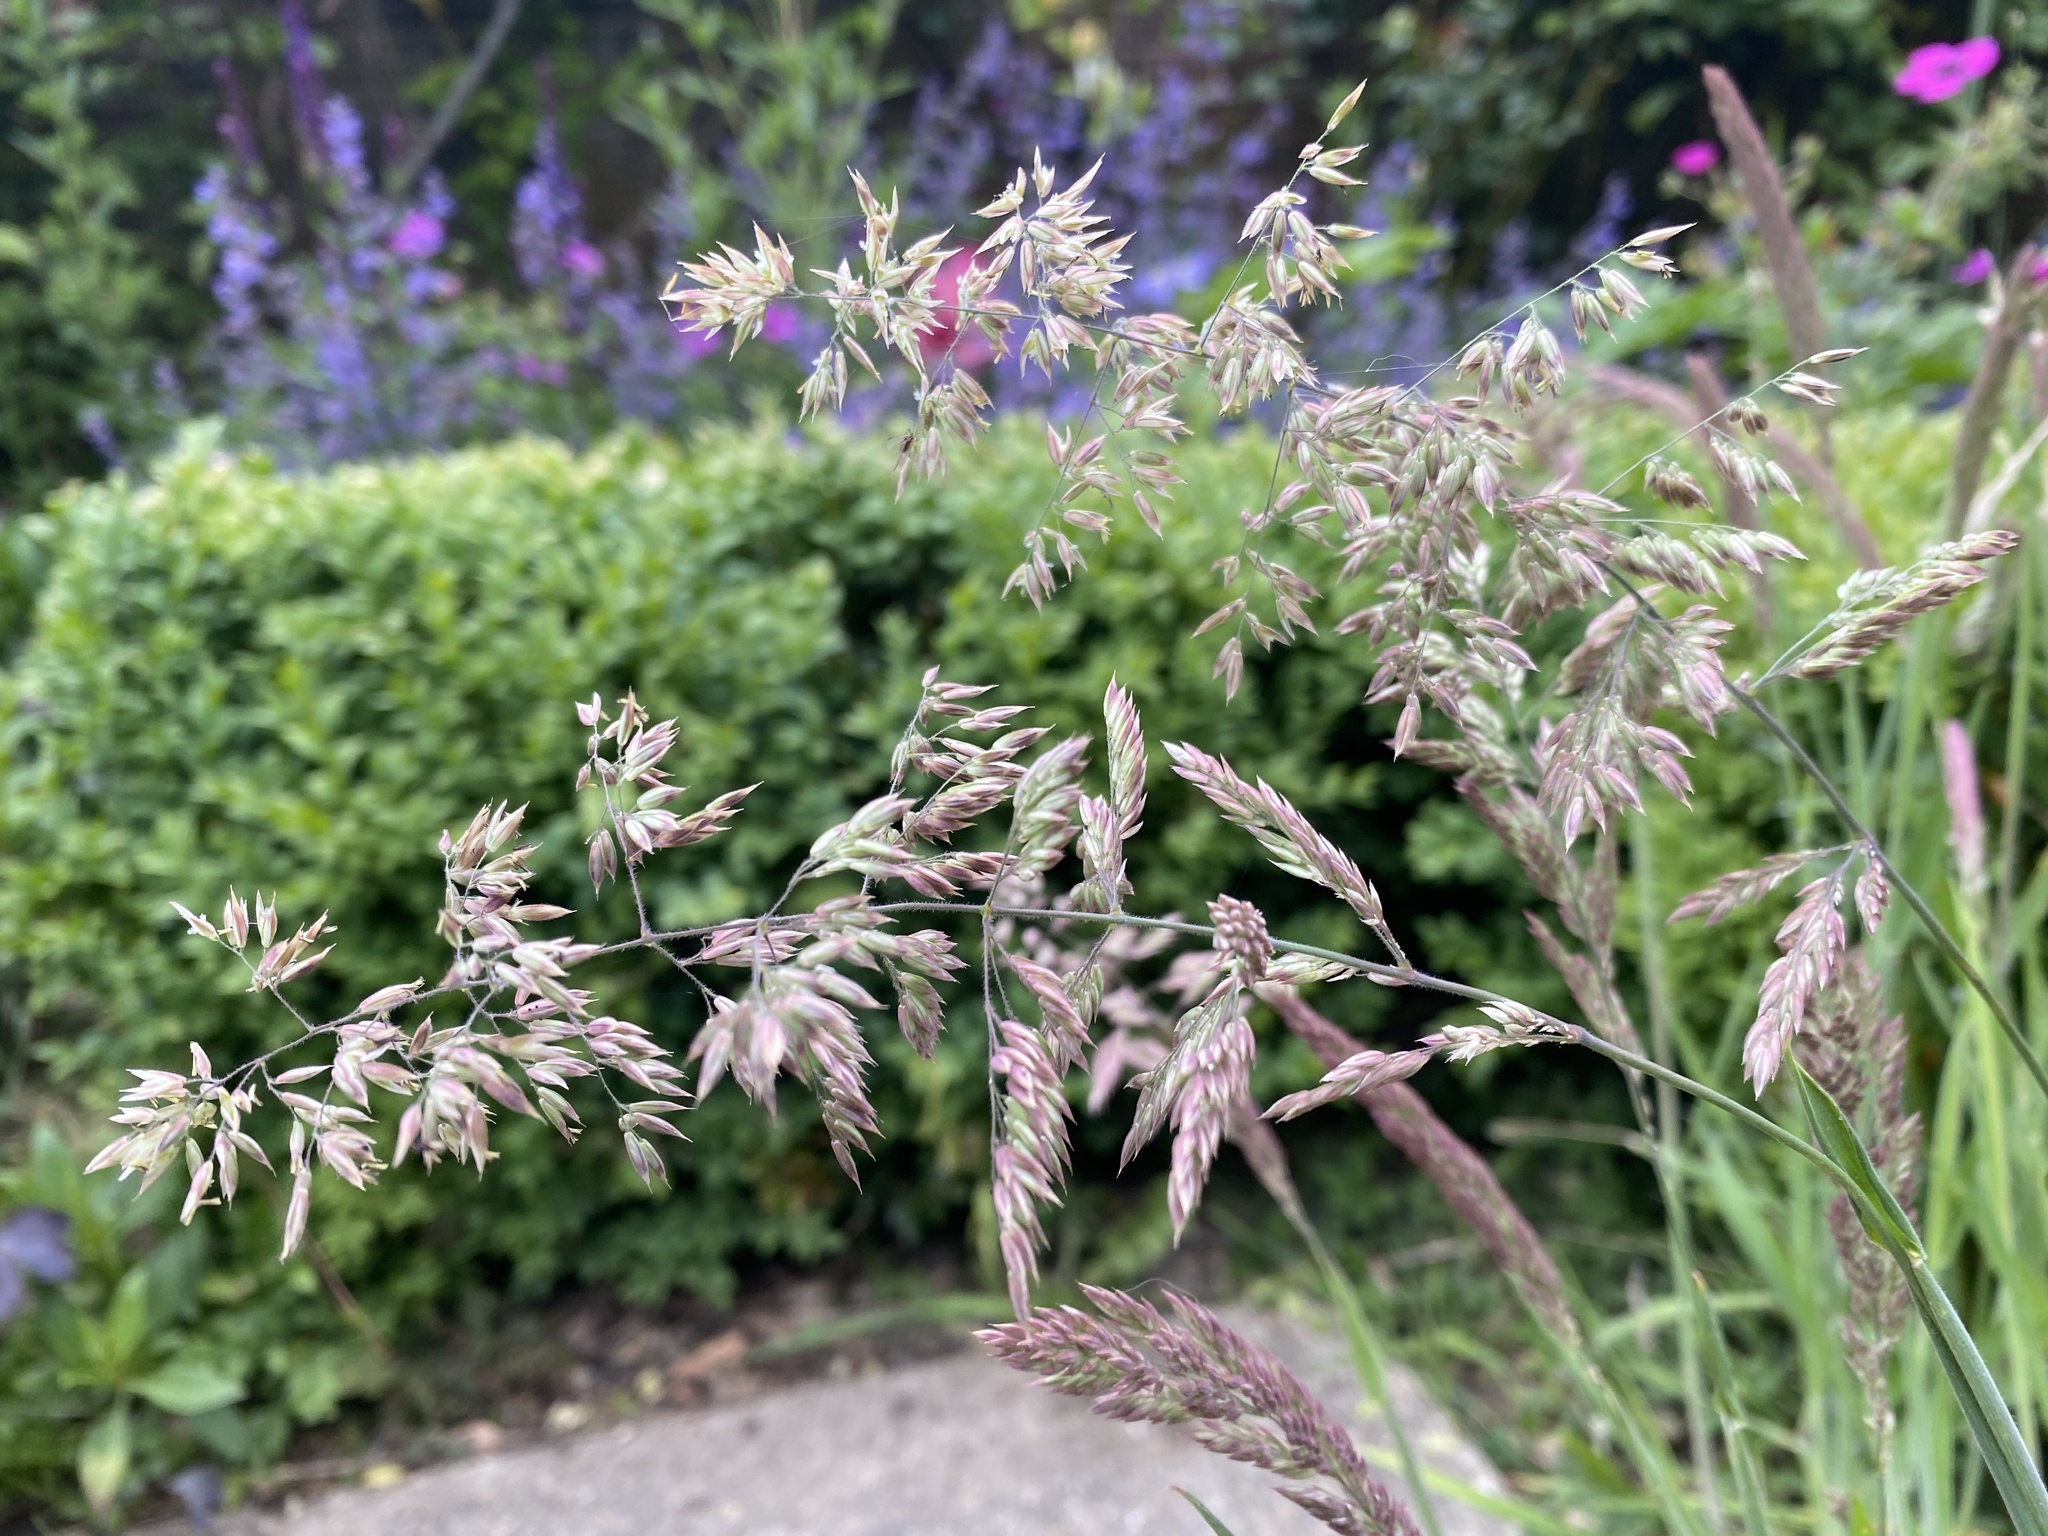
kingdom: Plantae
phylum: Tracheophyta
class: Liliopsida
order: Poales
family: Poaceae
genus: Holcus
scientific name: Holcus lanatus
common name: Yorkshire-fog
